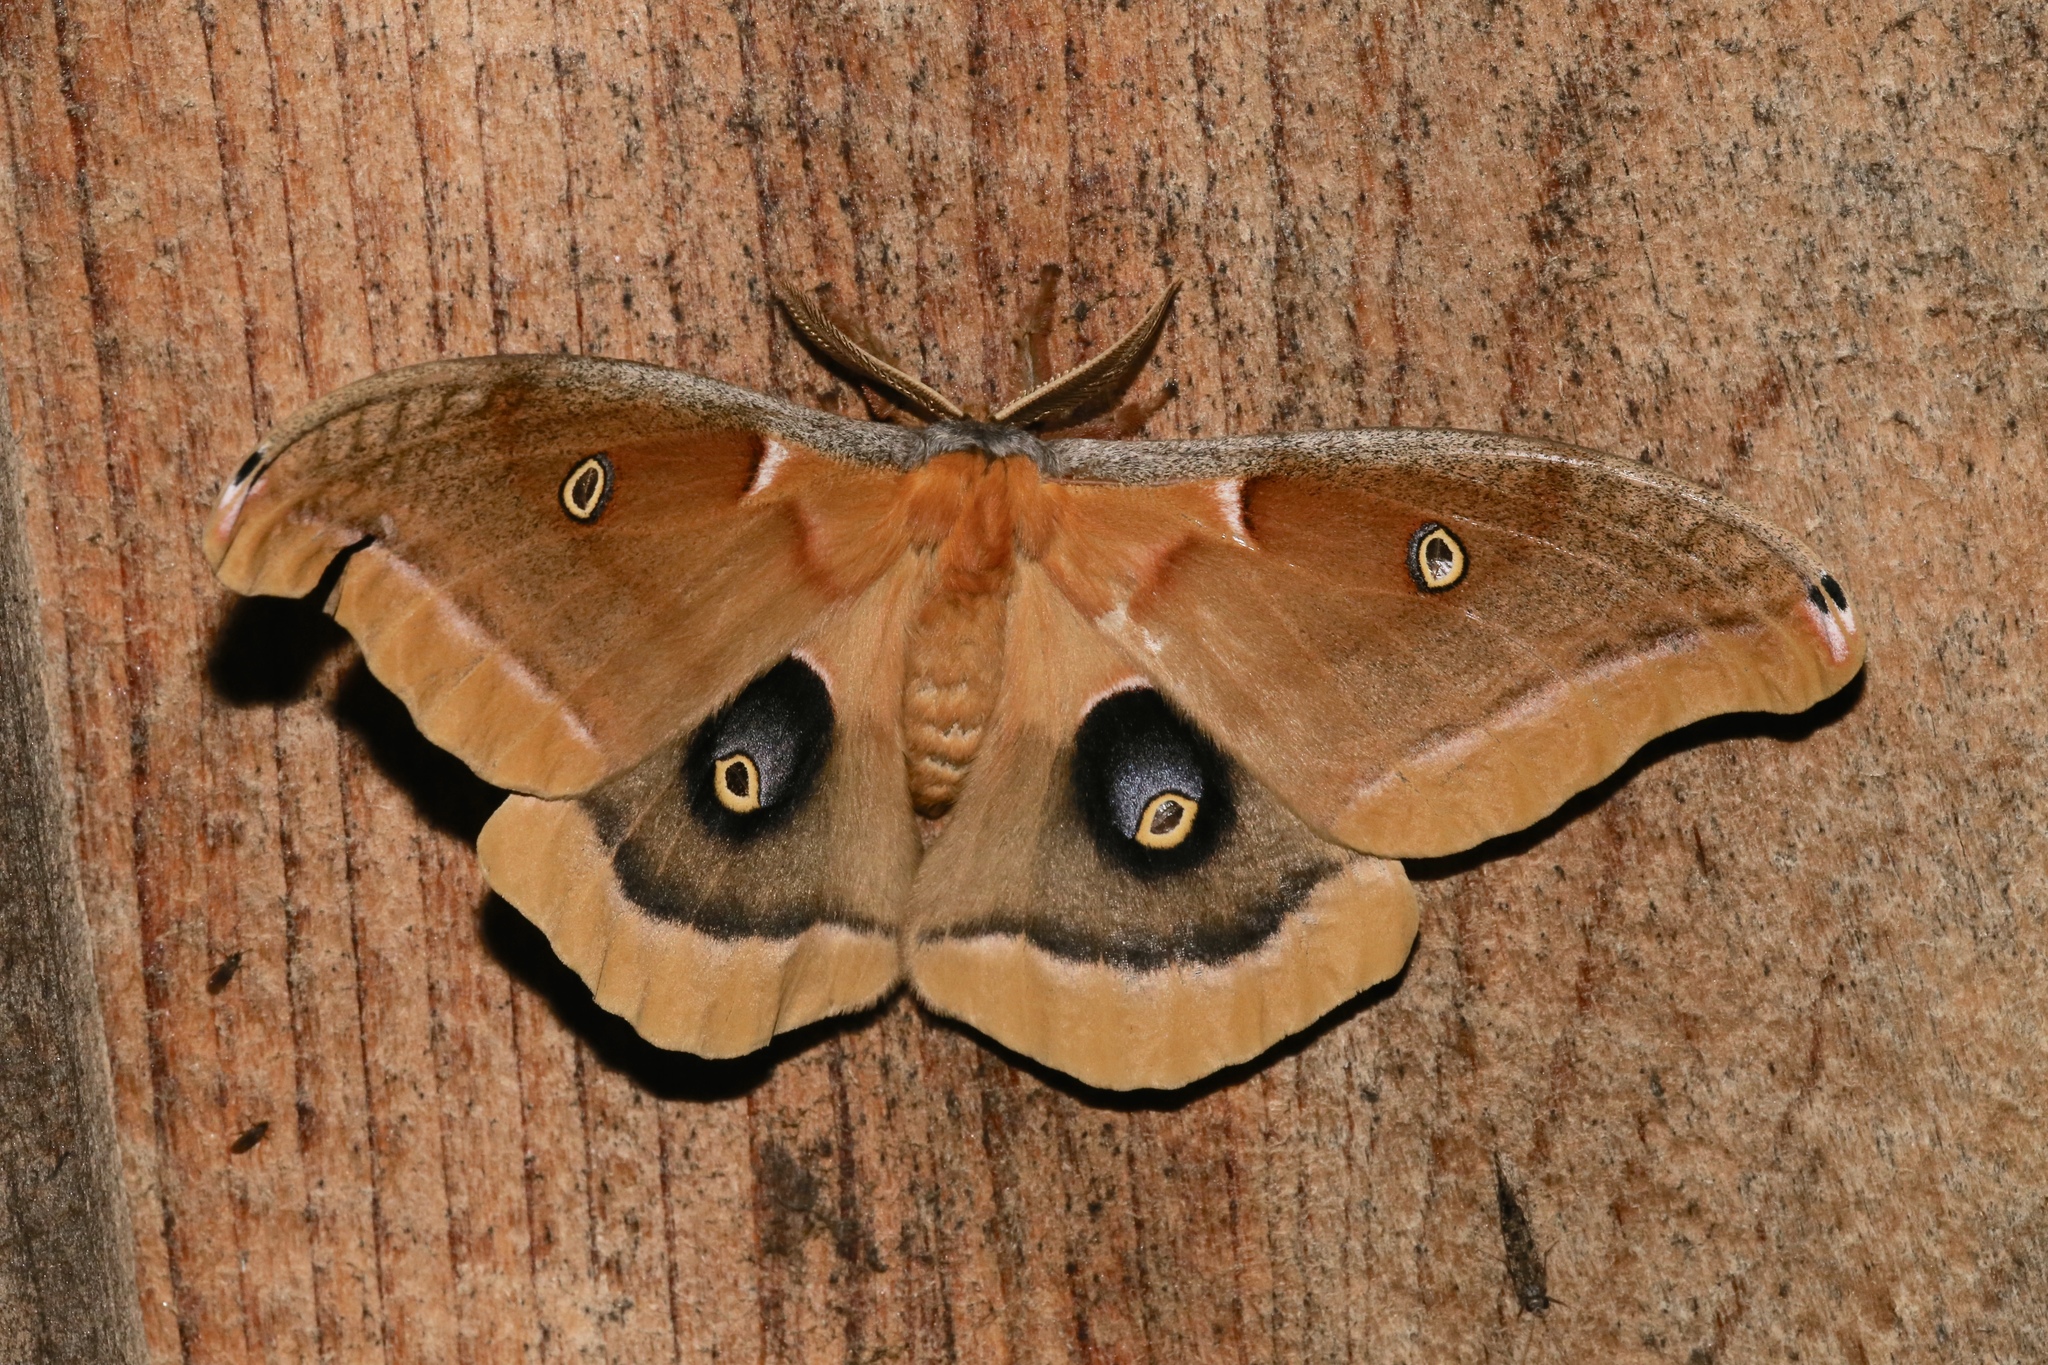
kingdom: Animalia
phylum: Arthropoda
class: Insecta
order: Lepidoptera
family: Saturniidae
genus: Antheraea
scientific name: Antheraea polyphemus
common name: Polyphemus moth
